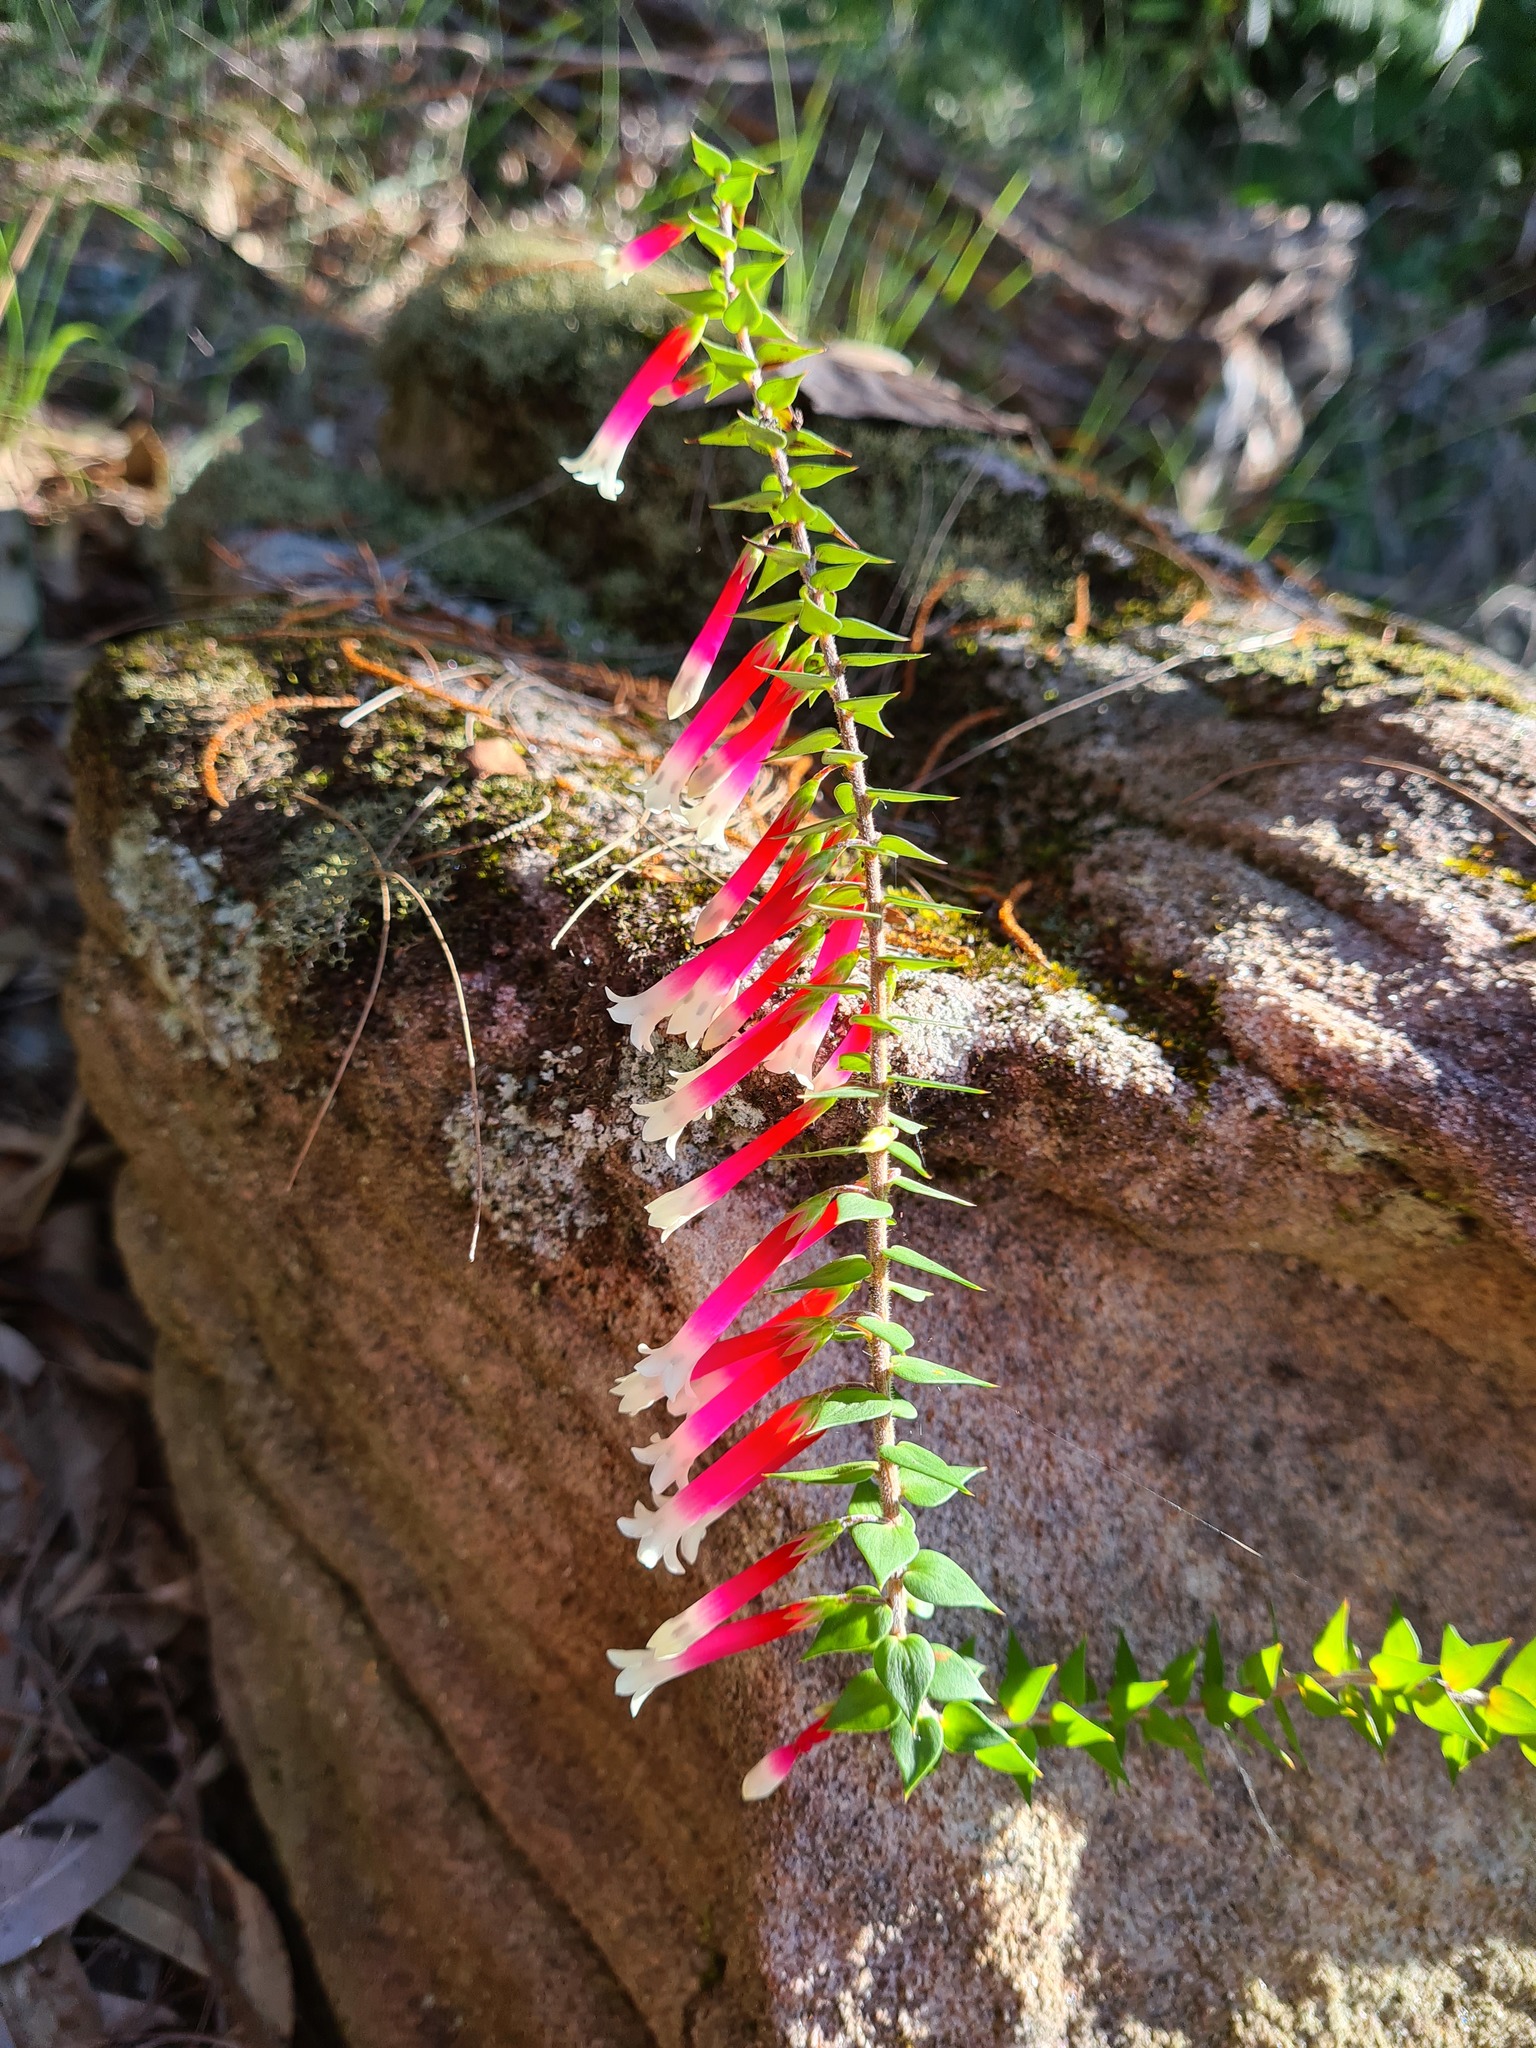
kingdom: Plantae
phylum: Tracheophyta
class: Magnoliopsida
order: Ericales
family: Ericaceae
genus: Epacris
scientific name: Epacris longiflora
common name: Fuchsia-heath
